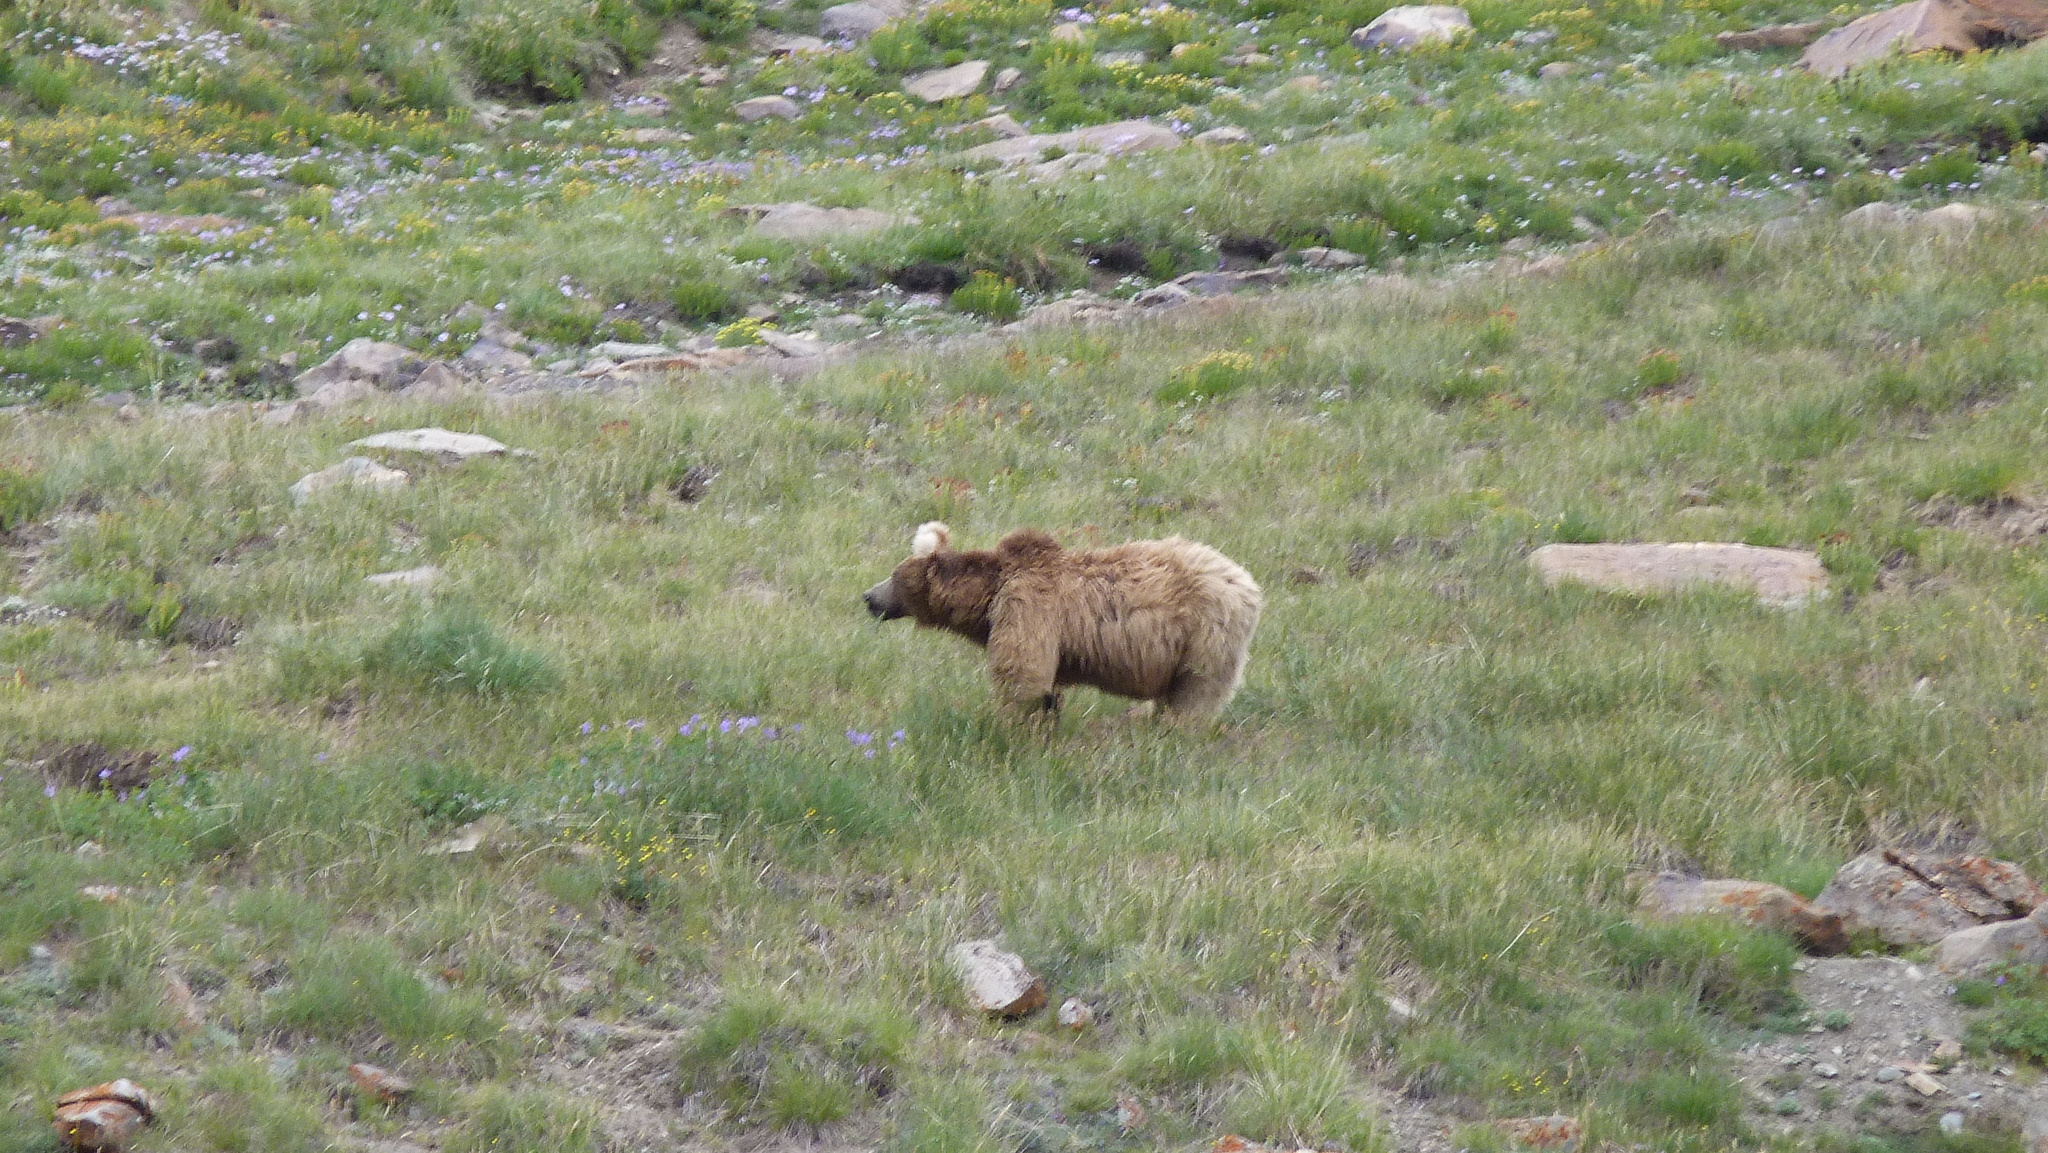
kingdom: Animalia
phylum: Chordata
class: Mammalia
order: Carnivora
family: Ursidae
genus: Ursus
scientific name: Ursus arctos
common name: Brown bear
